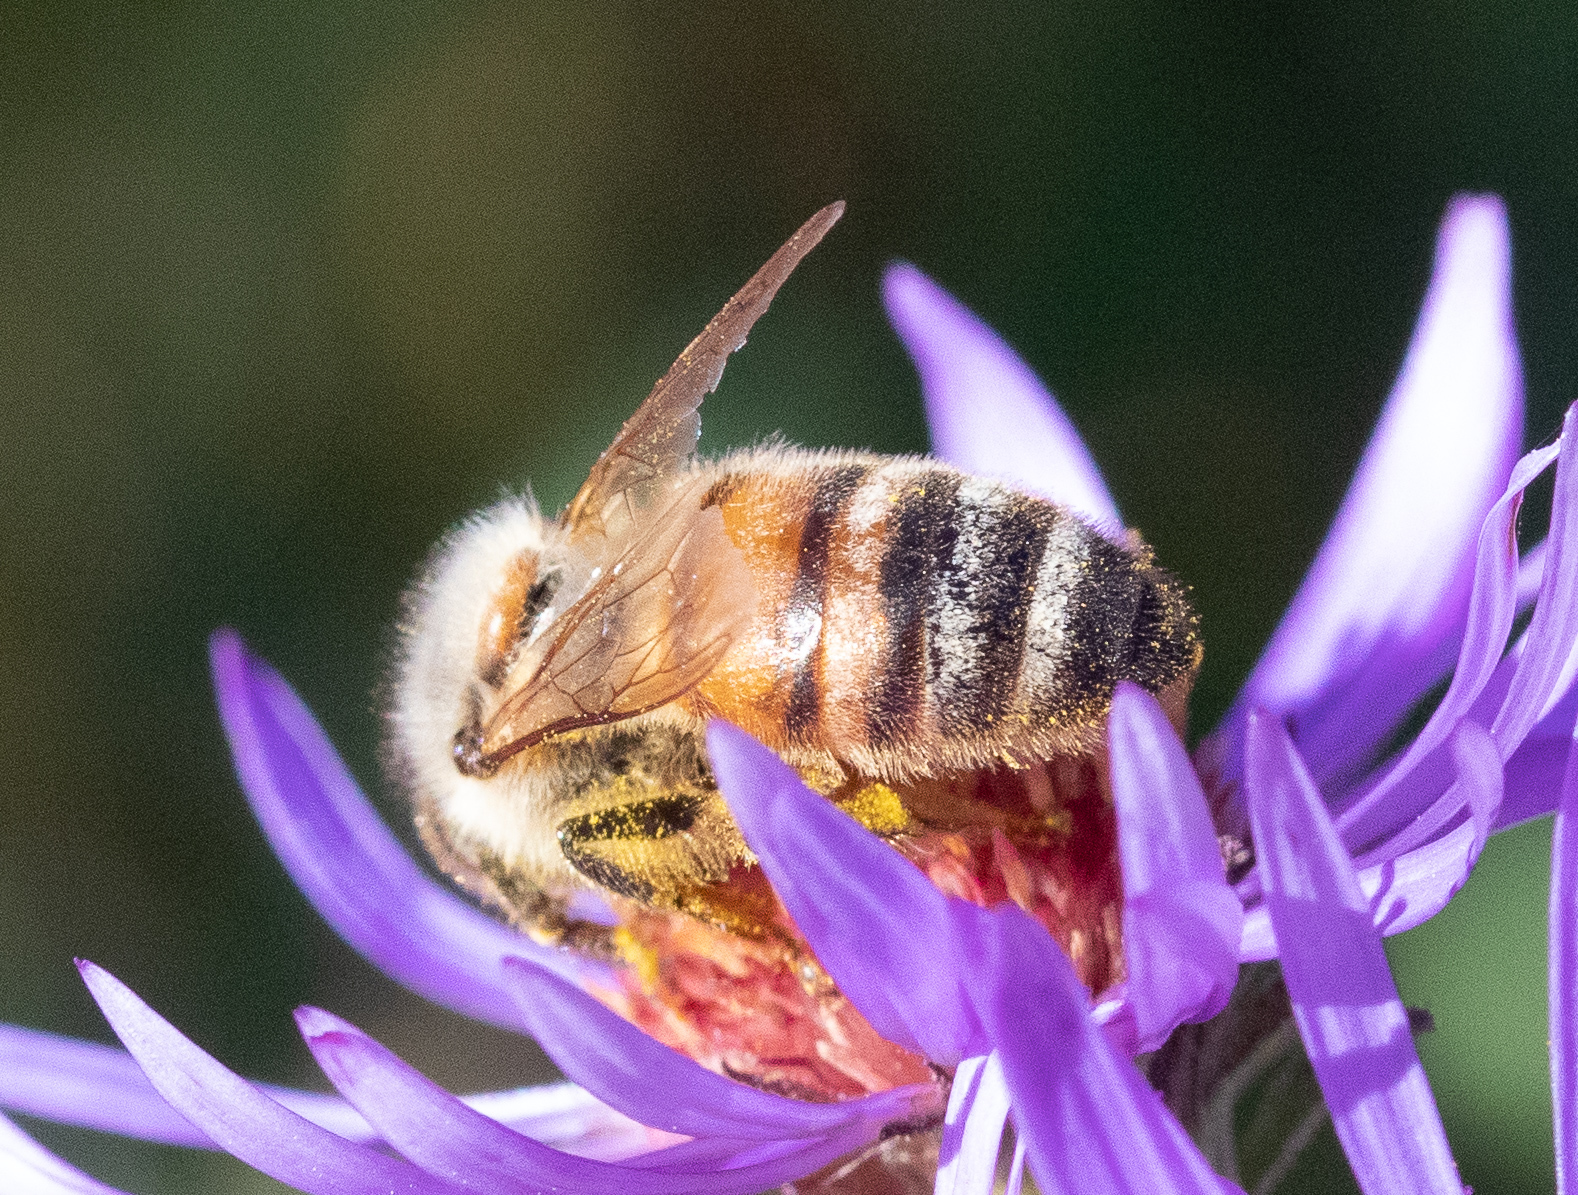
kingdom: Animalia
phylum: Arthropoda
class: Insecta
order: Hymenoptera
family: Apidae
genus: Apis
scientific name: Apis mellifera
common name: Honey bee
